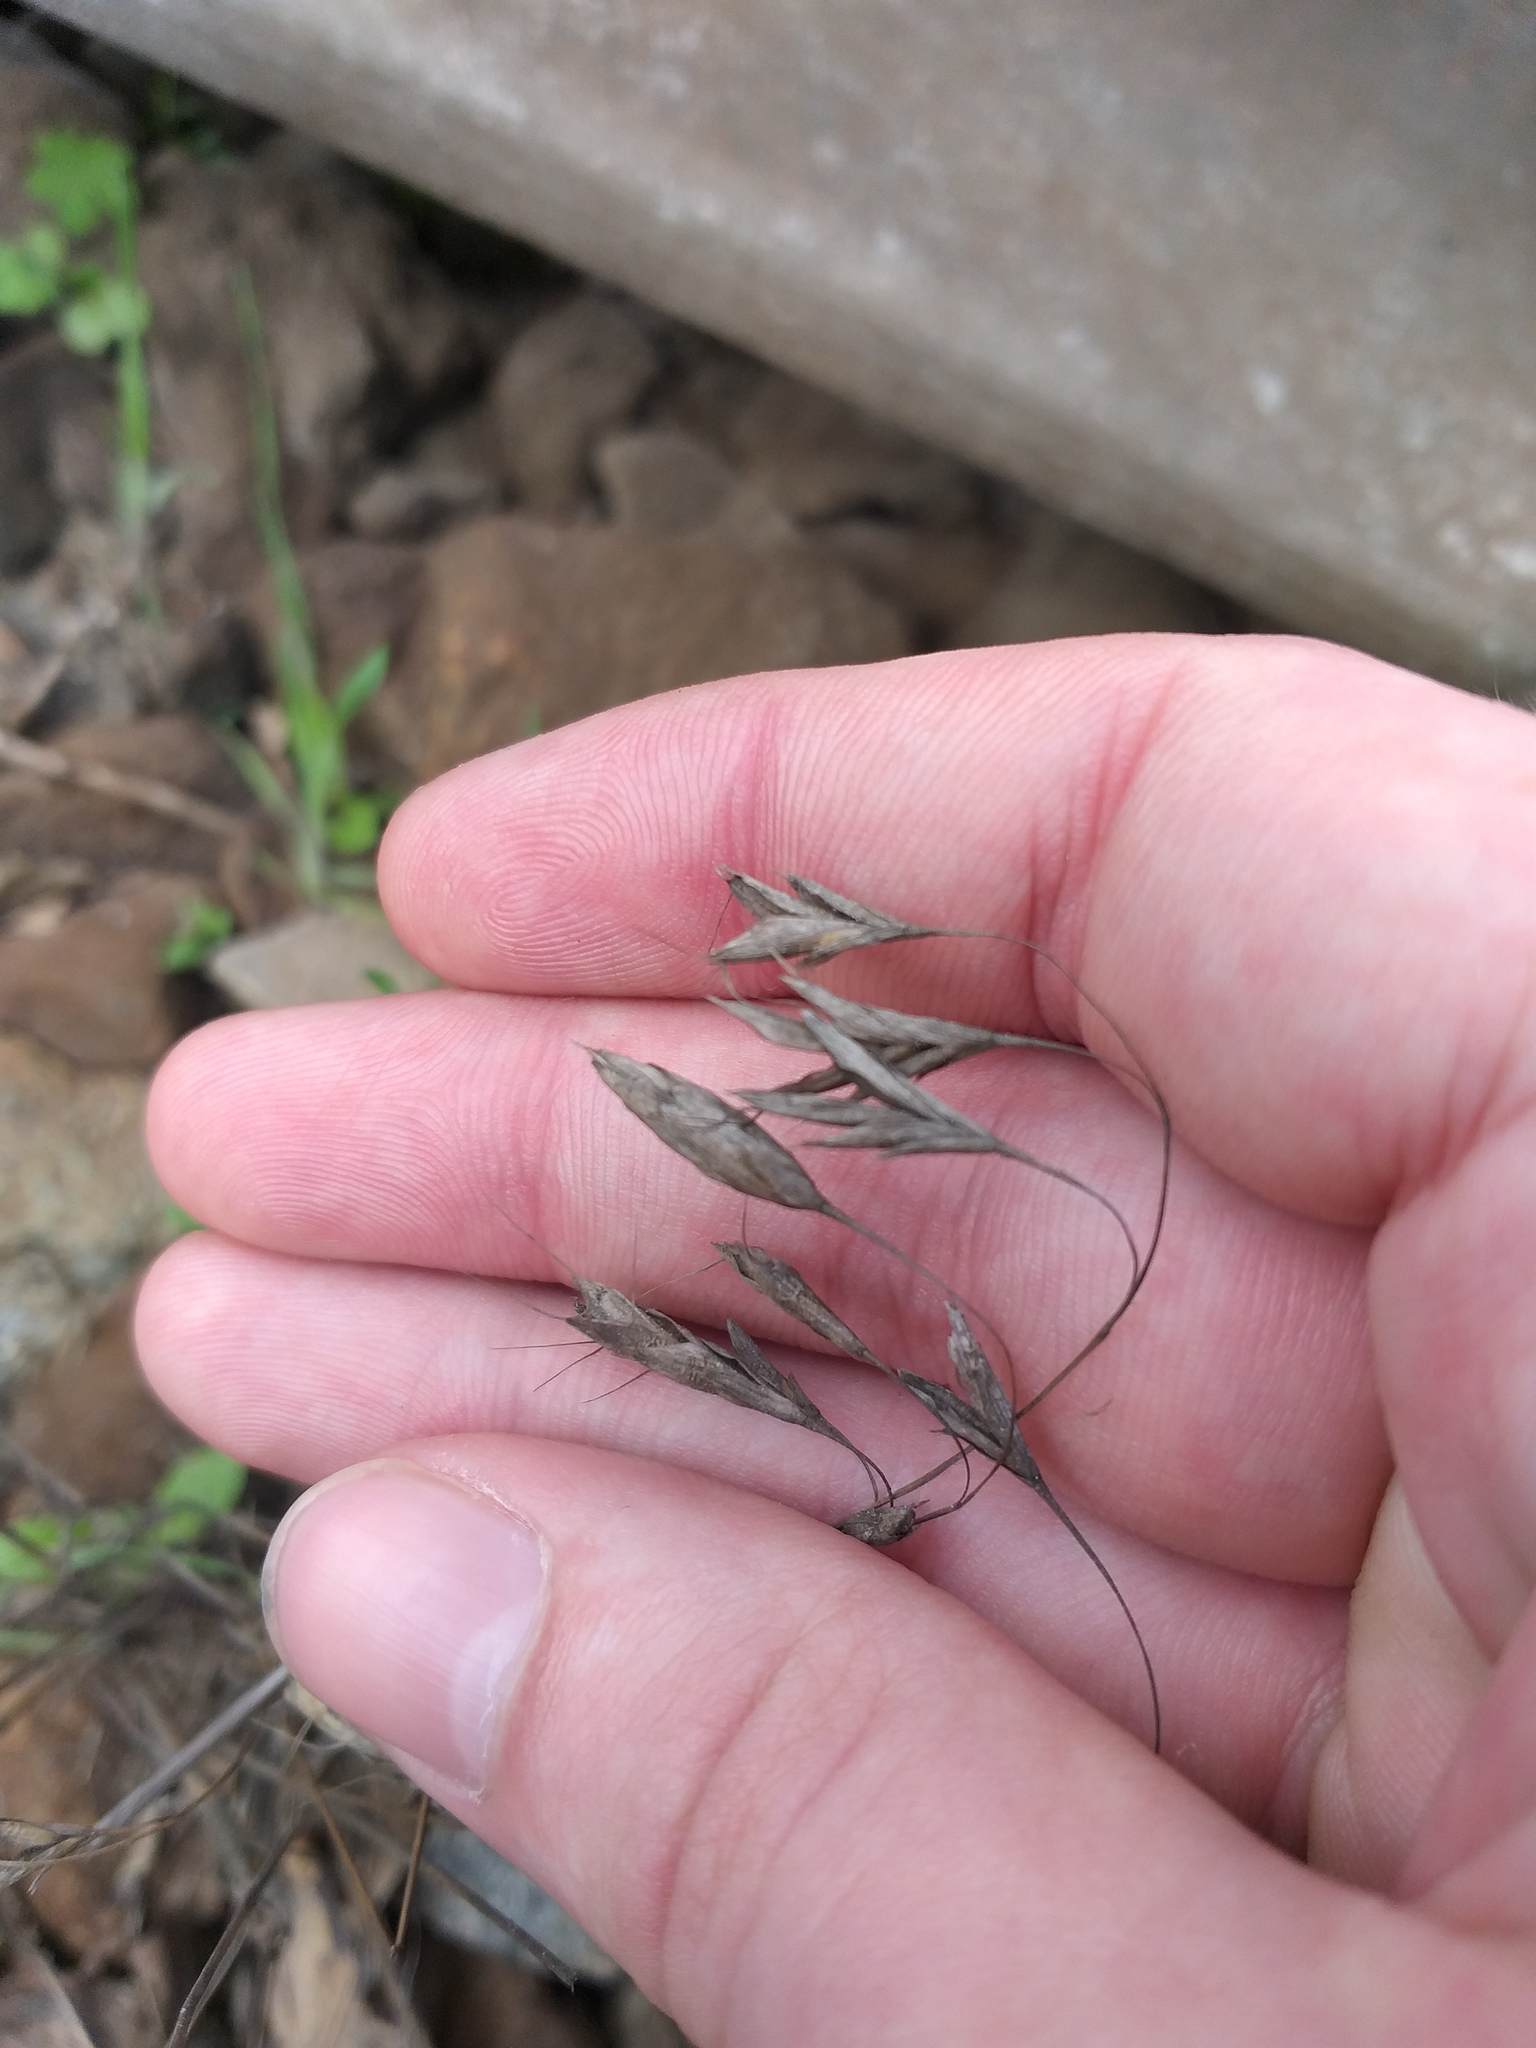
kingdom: Plantae
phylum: Tracheophyta
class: Liliopsida
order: Poales
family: Poaceae
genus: Bromus
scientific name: Bromus japonicus
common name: Japanese brome
